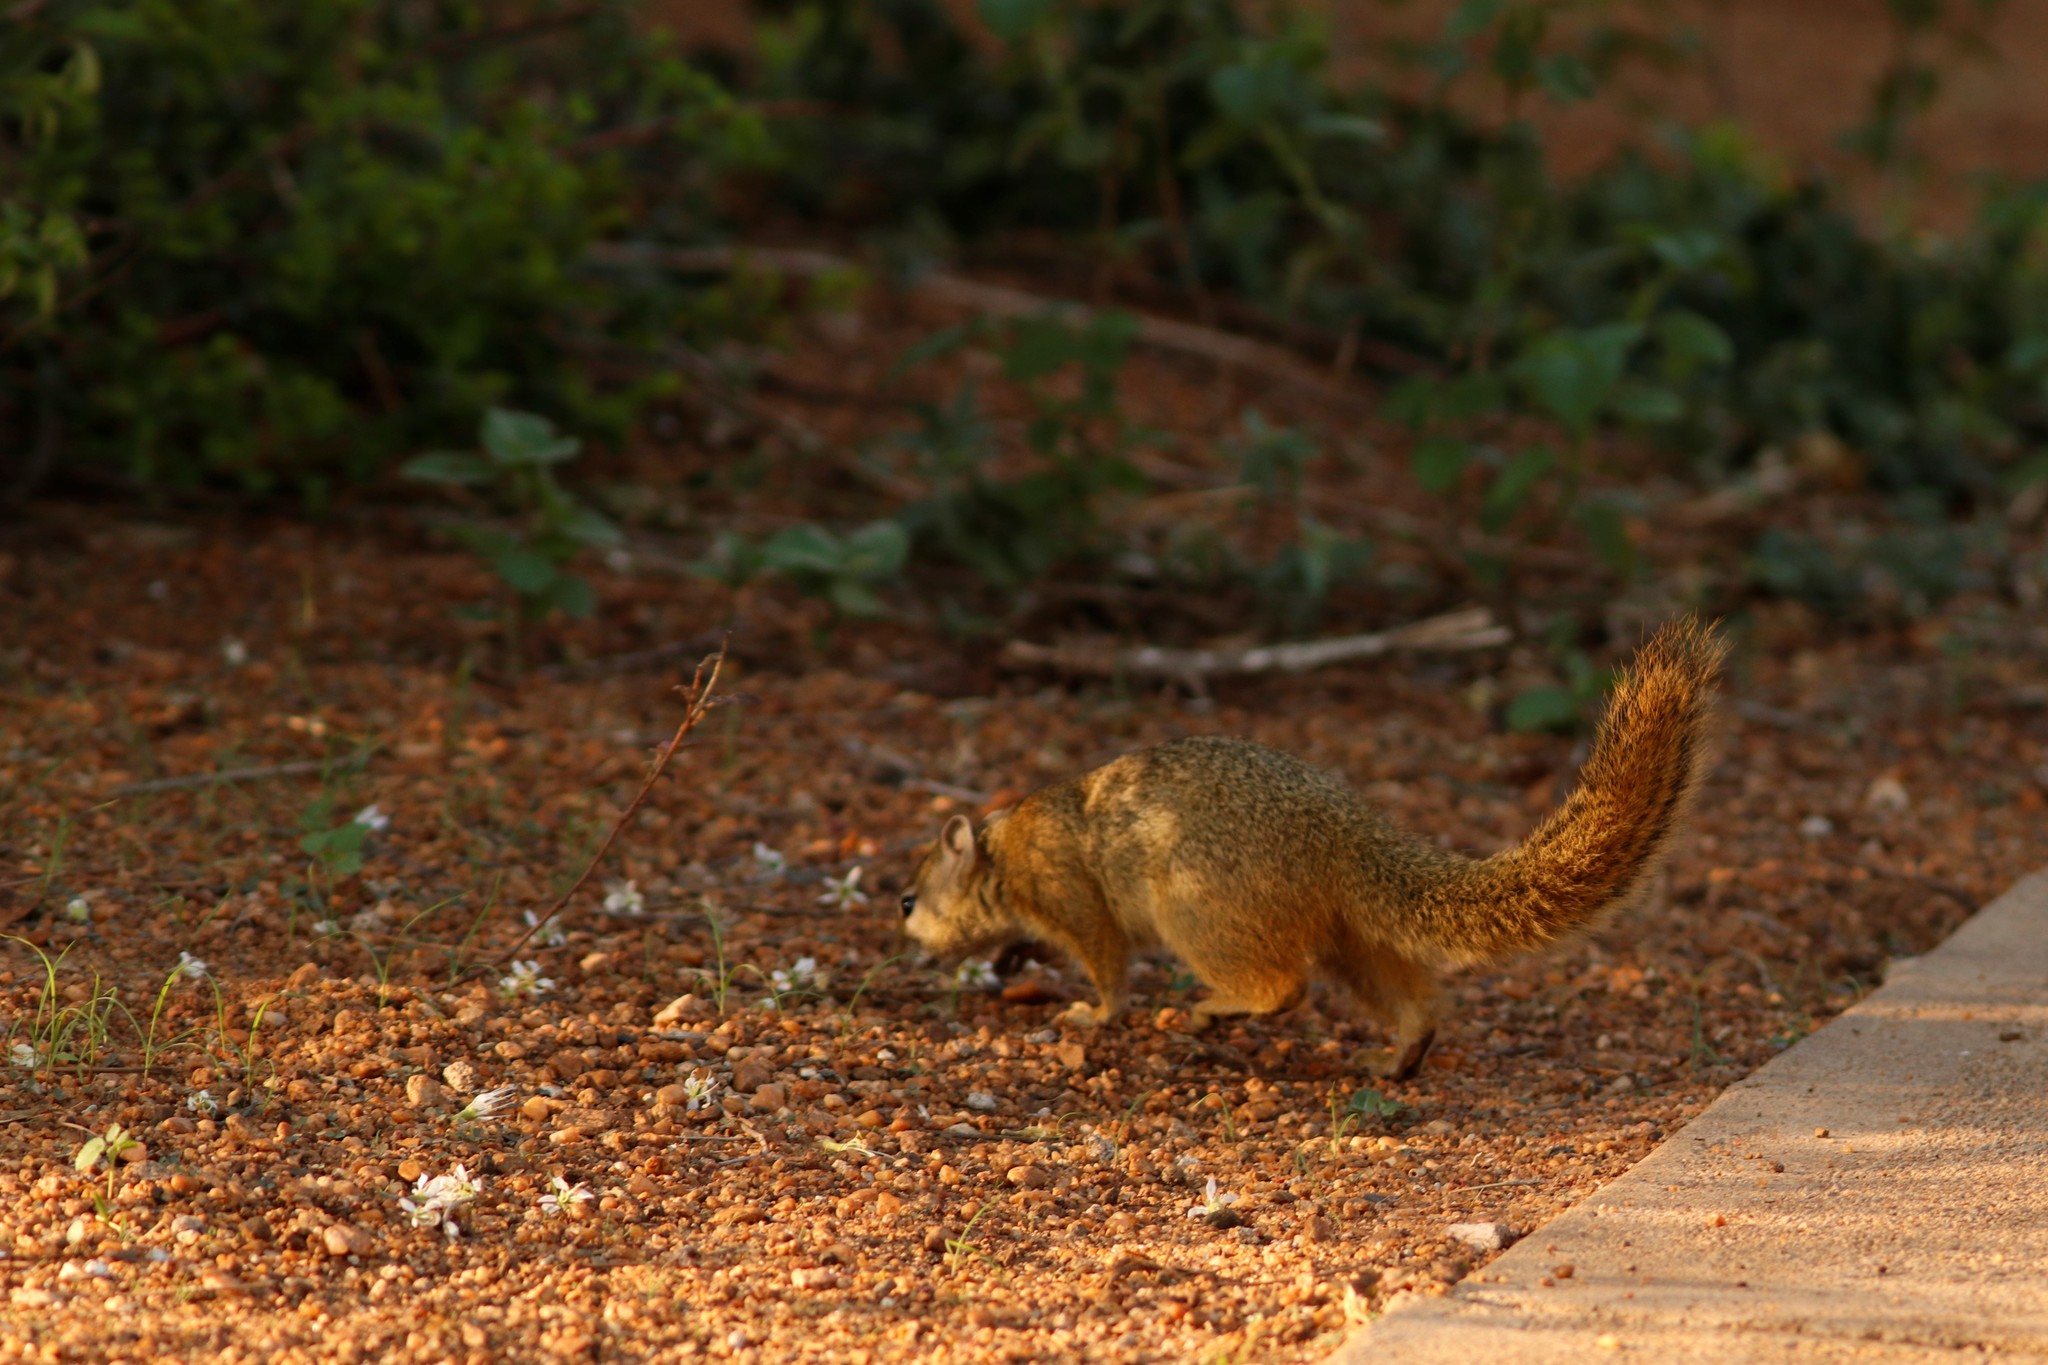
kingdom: Animalia
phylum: Chordata
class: Mammalia
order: Rodentia
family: Sciuridae
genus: Paraxerus
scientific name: Paraxerus cepapi
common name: Smith's bush squirrel
